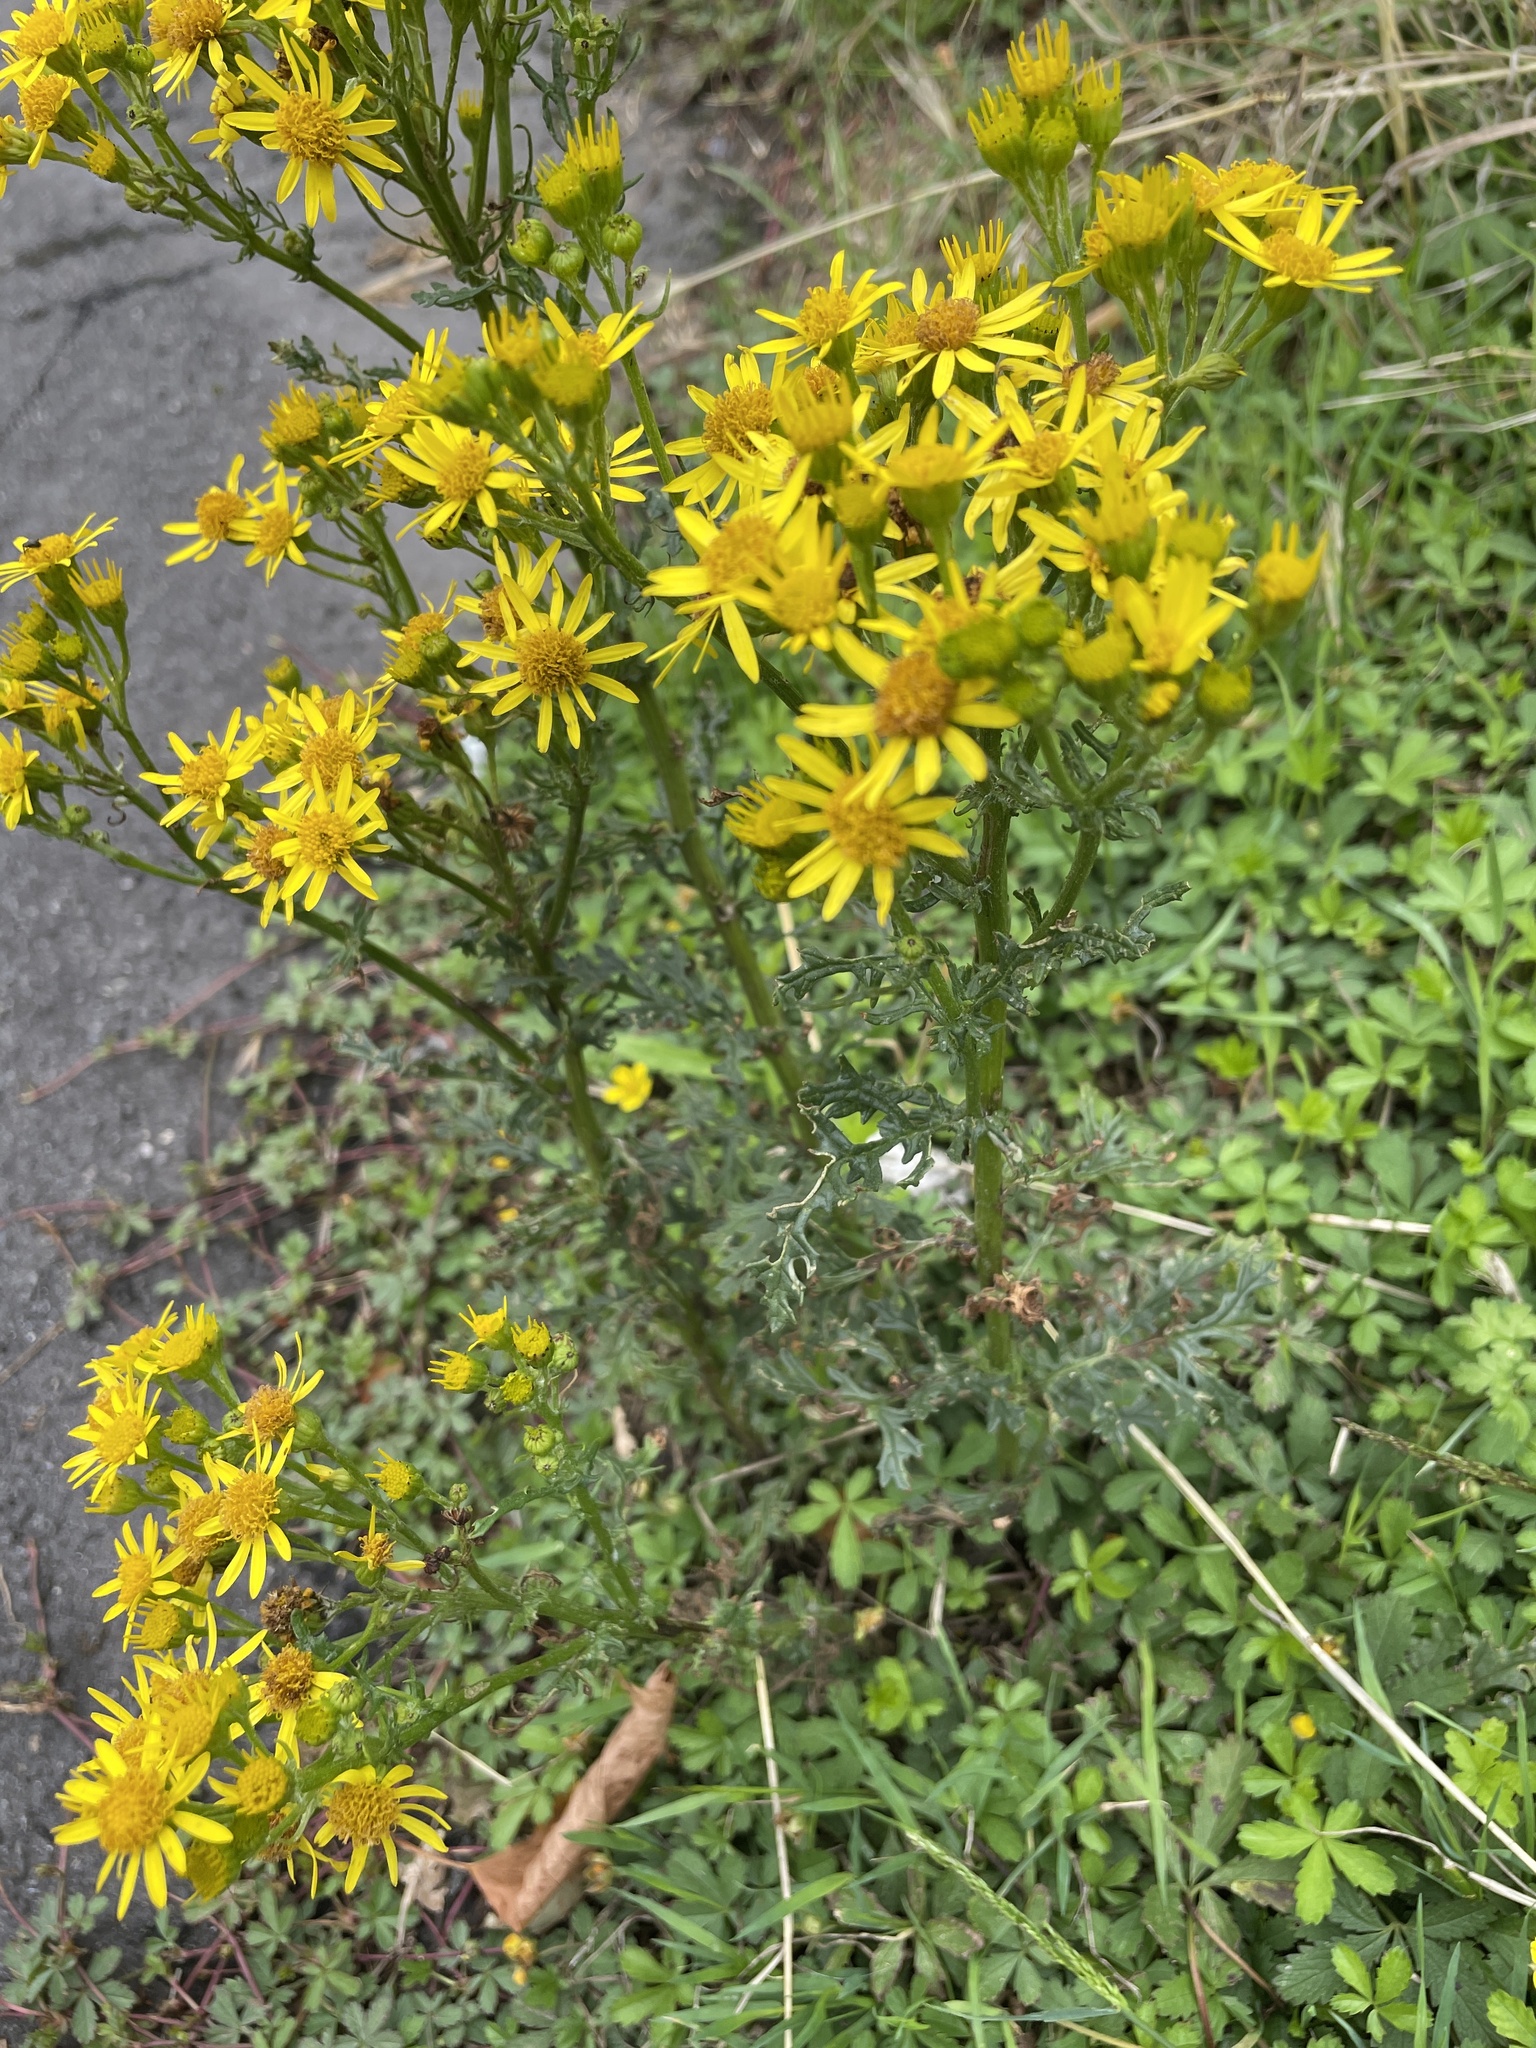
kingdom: Plantae
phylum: Tracheophyta
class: Magnoliopsida
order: Asterales
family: Asteraceae
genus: Jacobaea
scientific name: Jacobaea vulgaris
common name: Stinking willie
